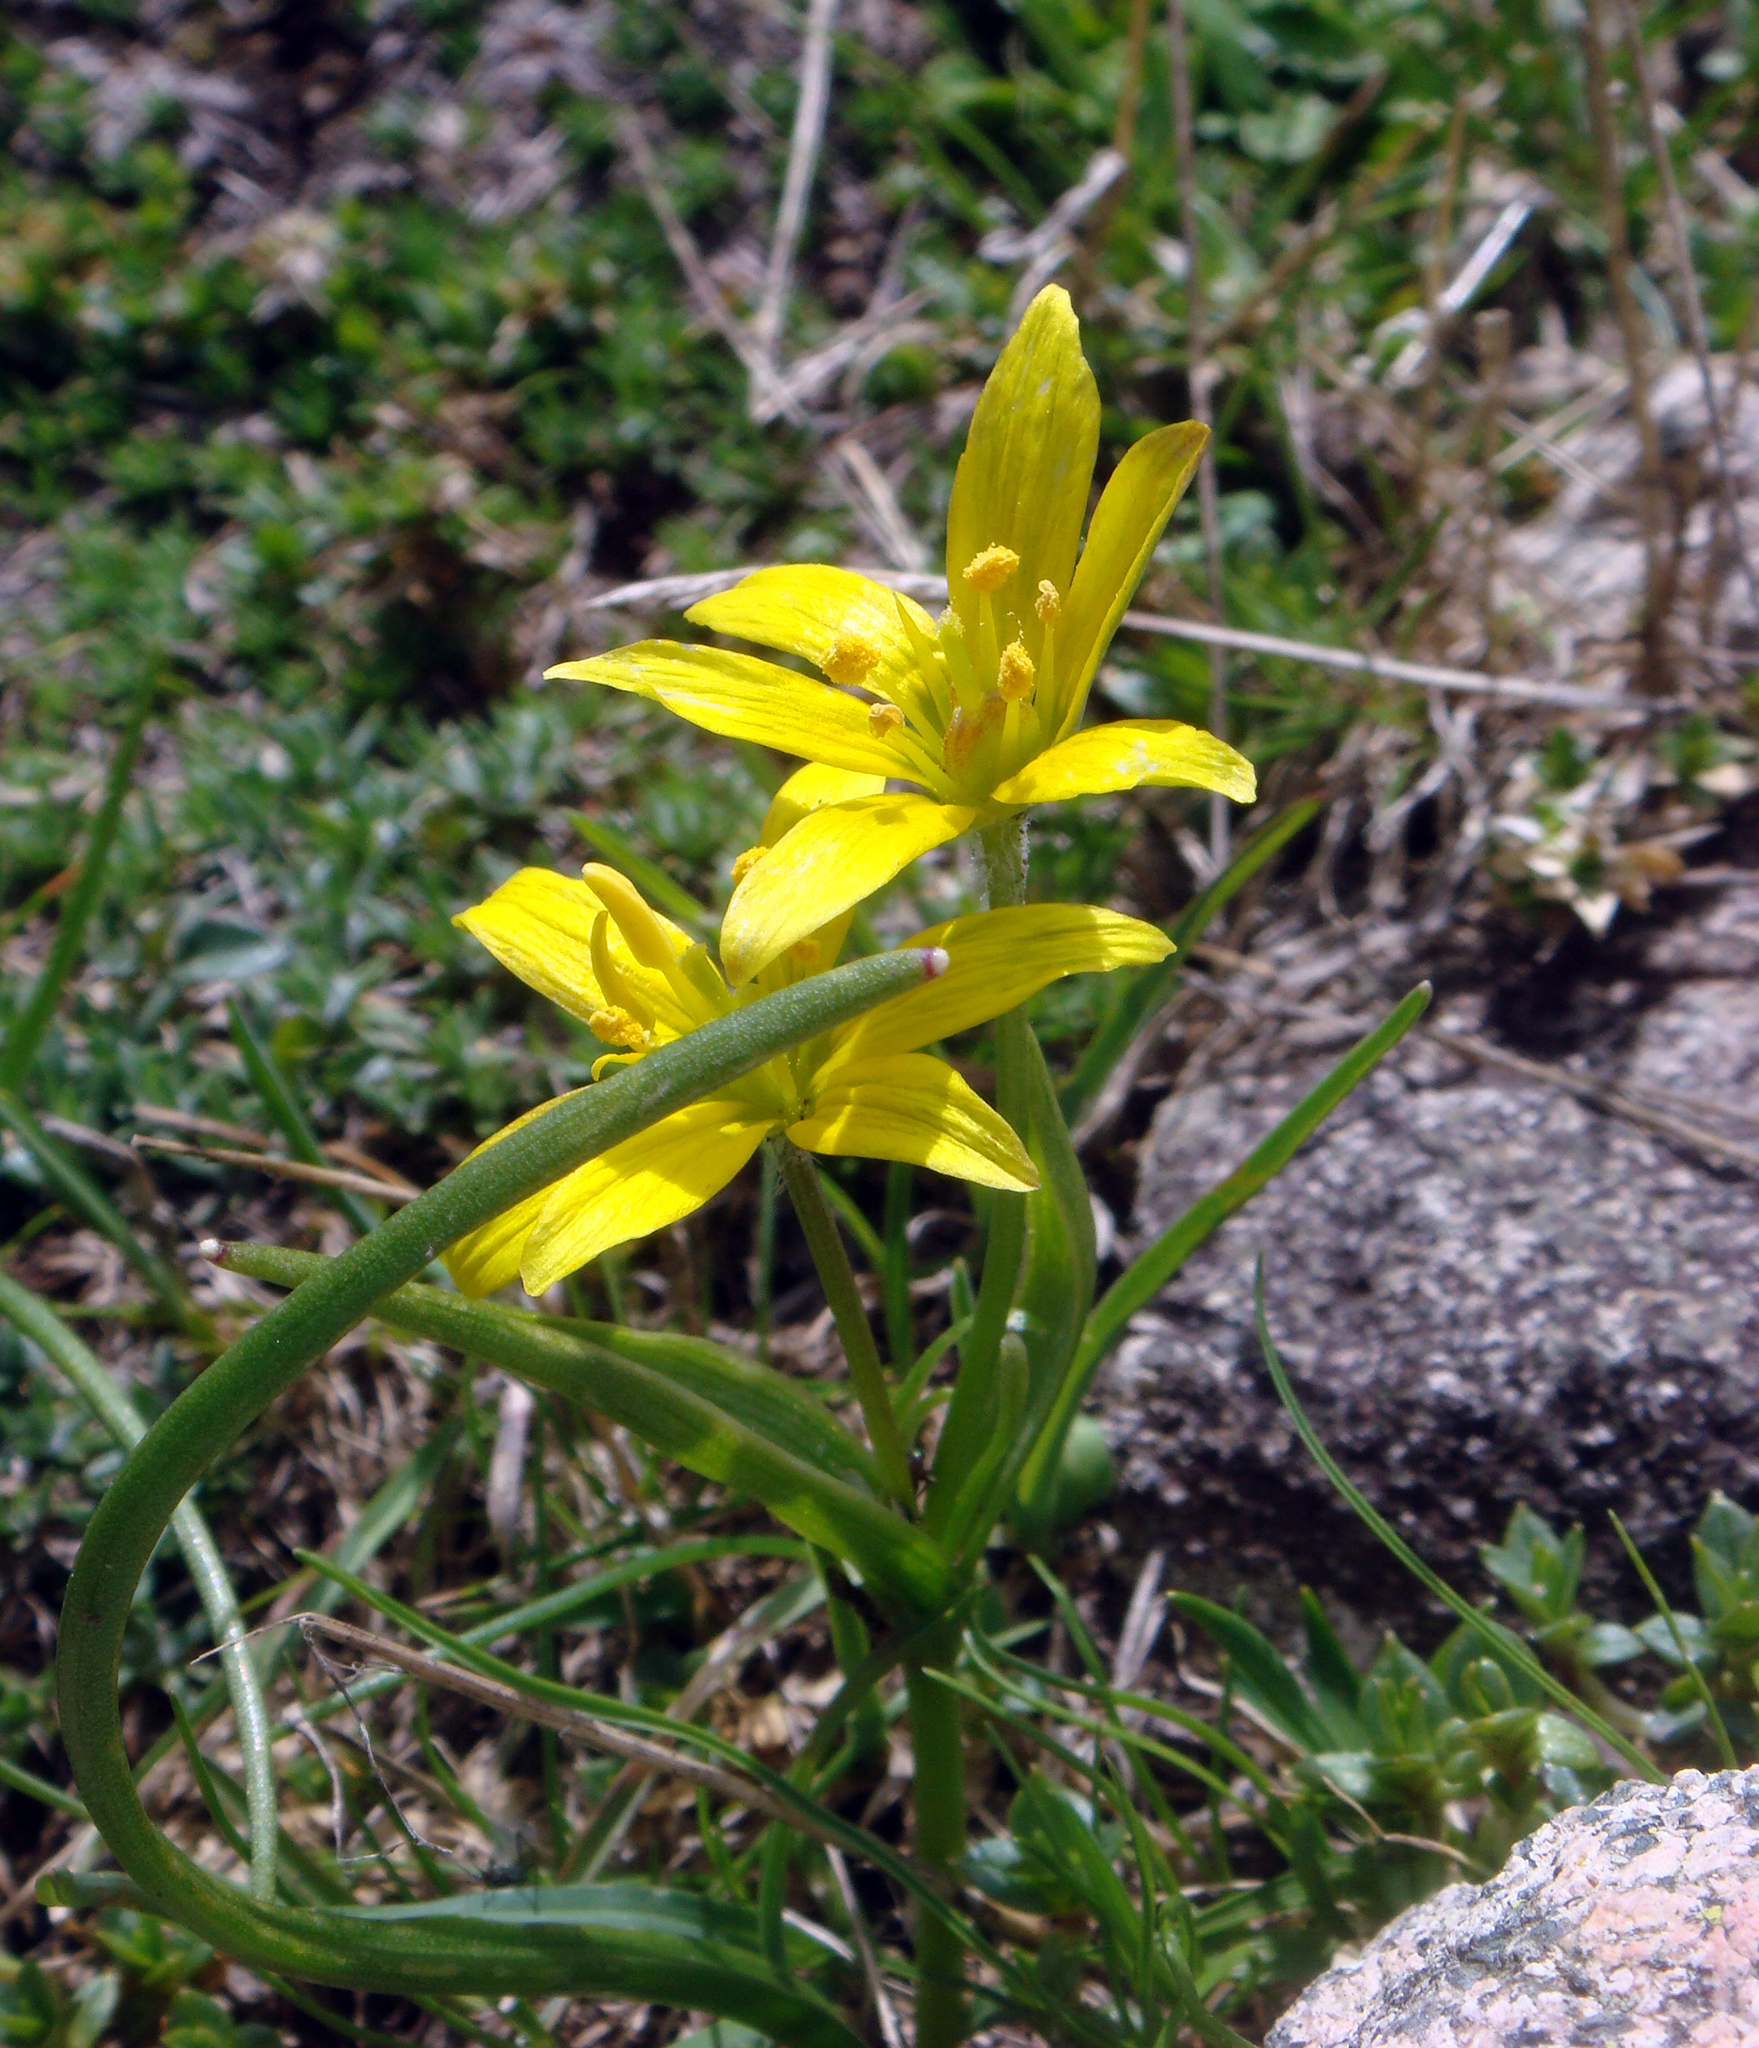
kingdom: Plantae
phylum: Tracheophyta
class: Liliopsida
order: Liliales
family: Liliaceae
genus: Gagea
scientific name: Gagea bohemica
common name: Early star-of-bethlehem
